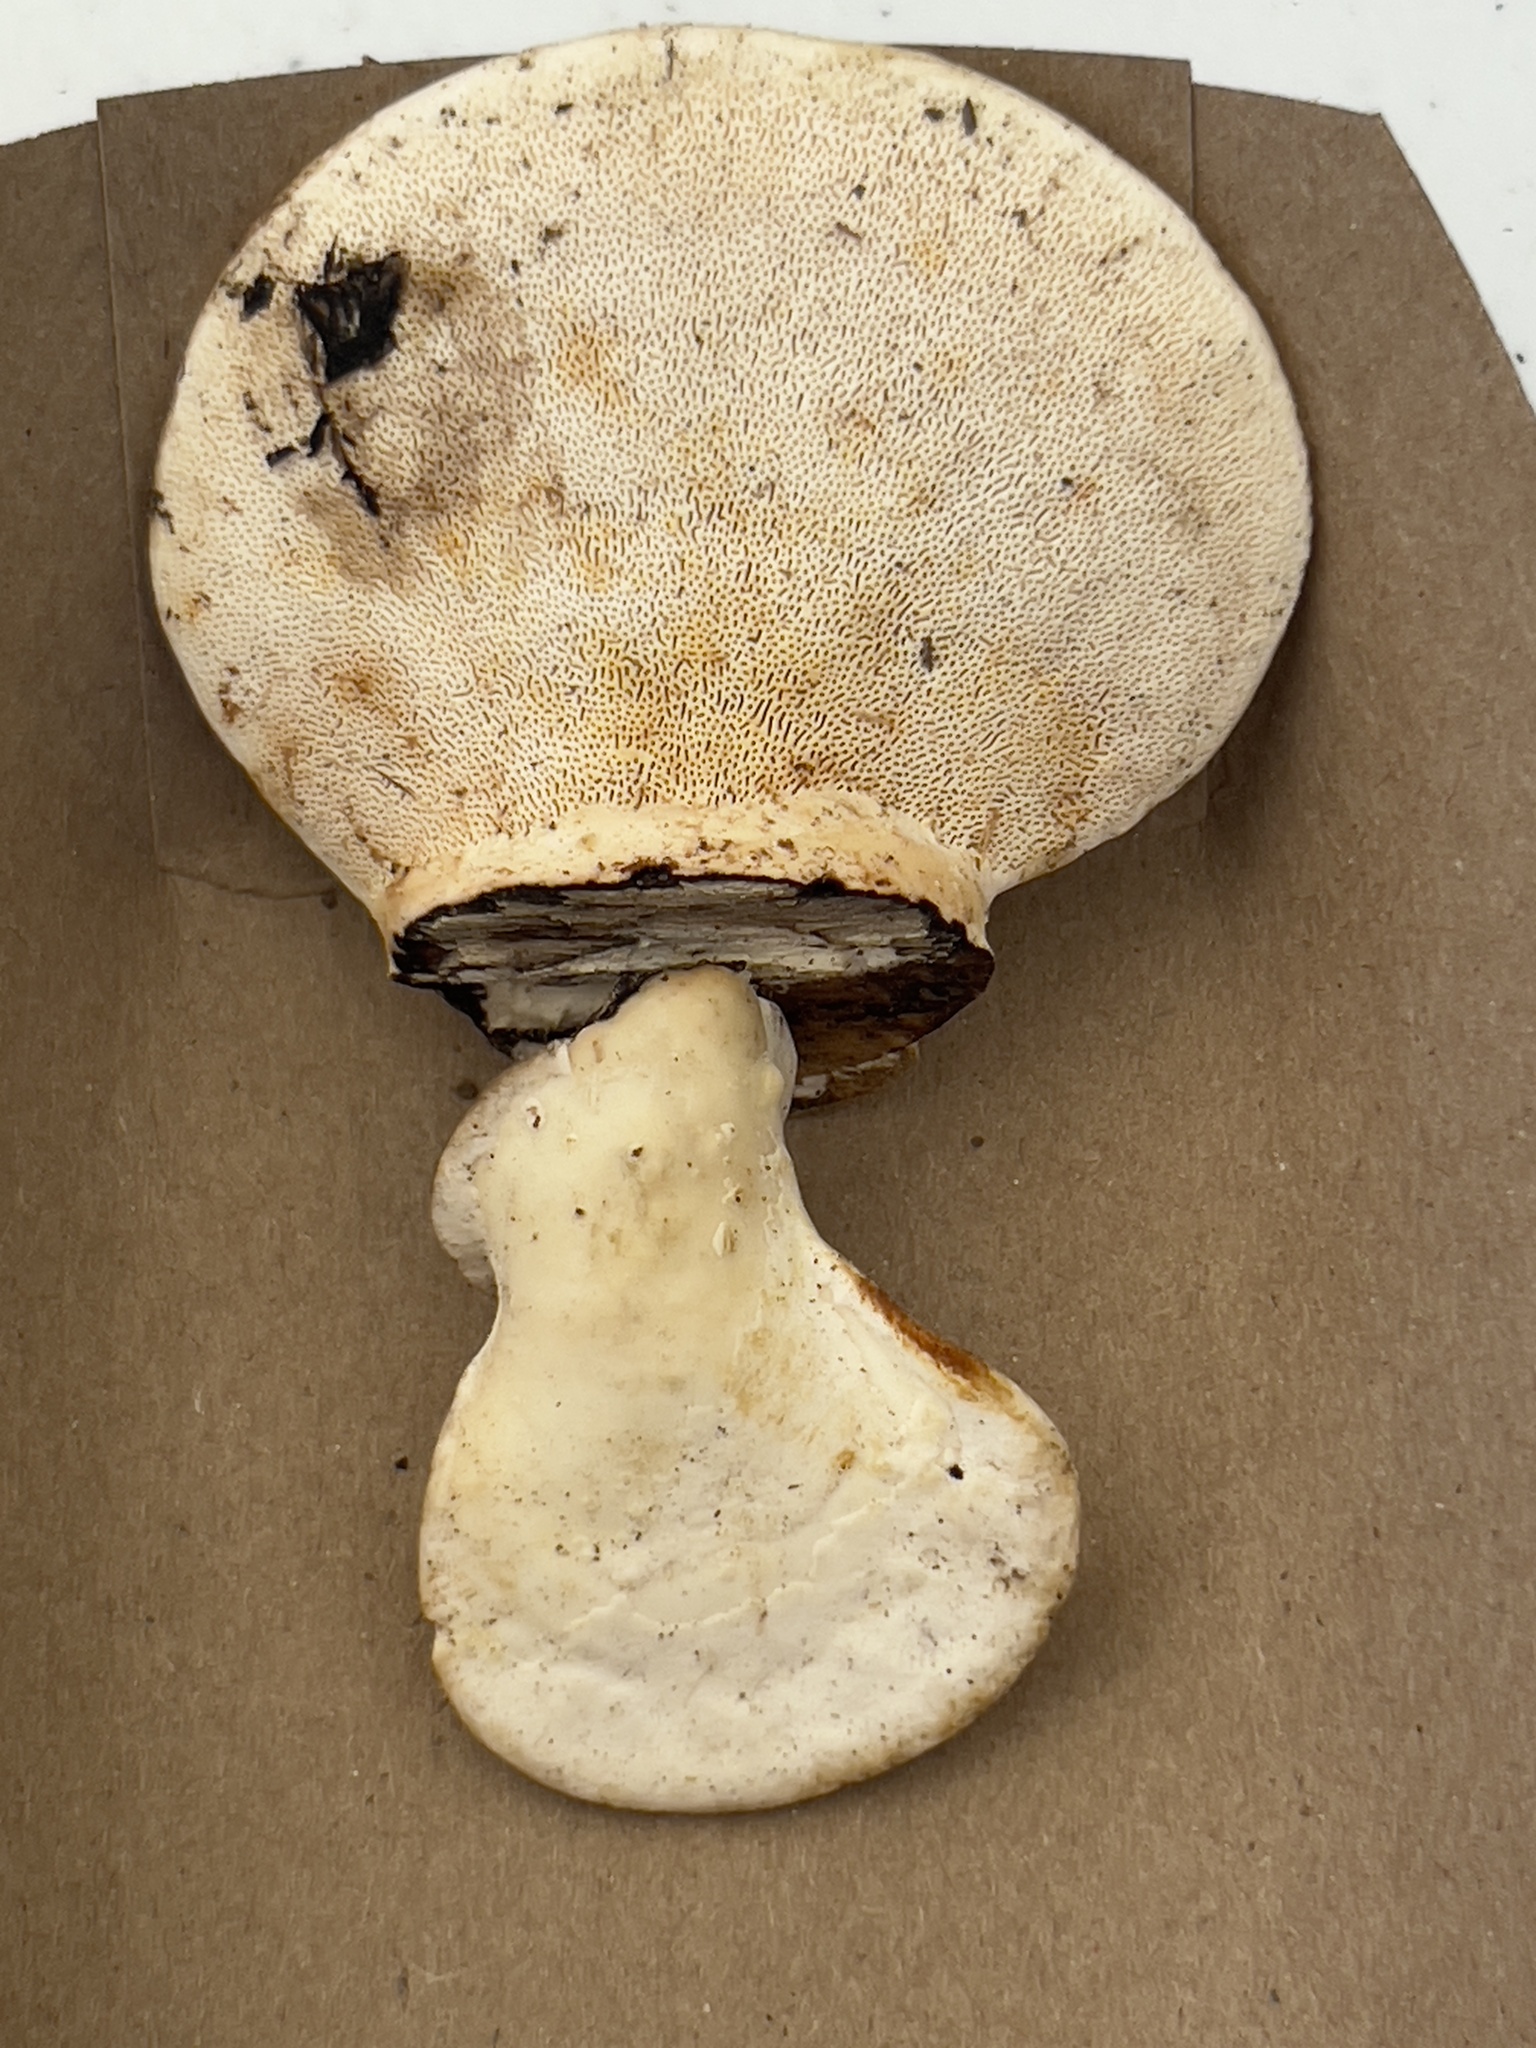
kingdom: Fungi
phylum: Basidiomycota
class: Agaricomycetes
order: Polyporales
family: Polyporaceae
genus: Trametes
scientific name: Trametes gibbosa
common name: Lumpy bracket
